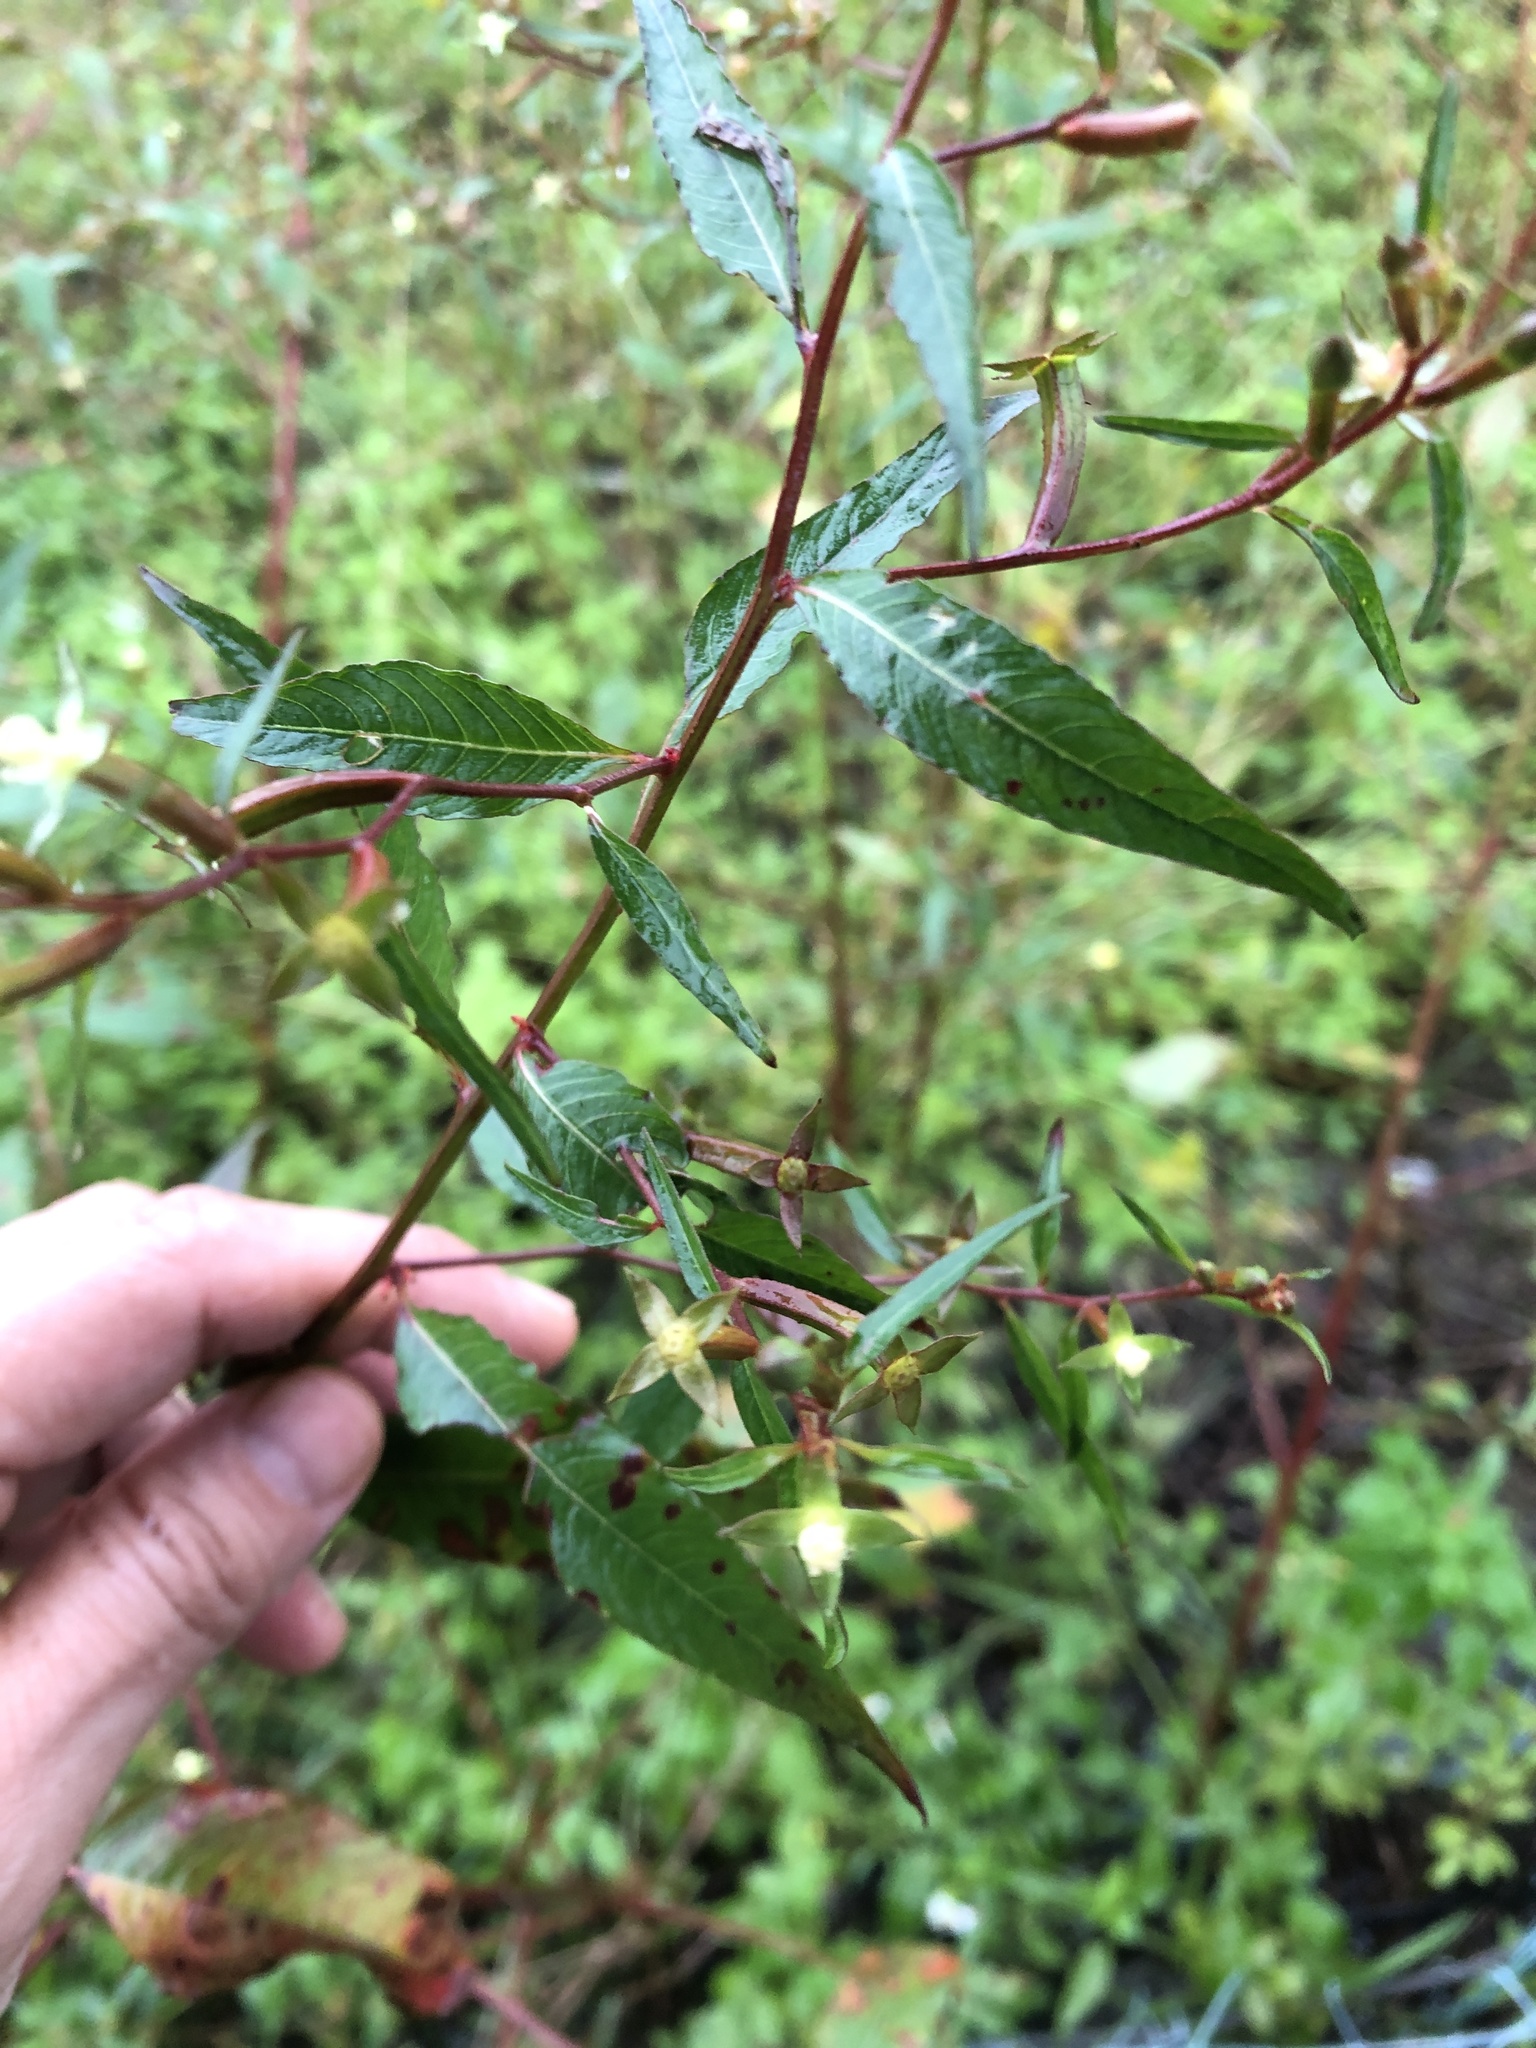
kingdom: Plantae
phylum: Tracheophyta
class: Magnoliopsida
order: Myrtales
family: Onagraceae
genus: Ludwigia
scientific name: Ludwigia erecta
